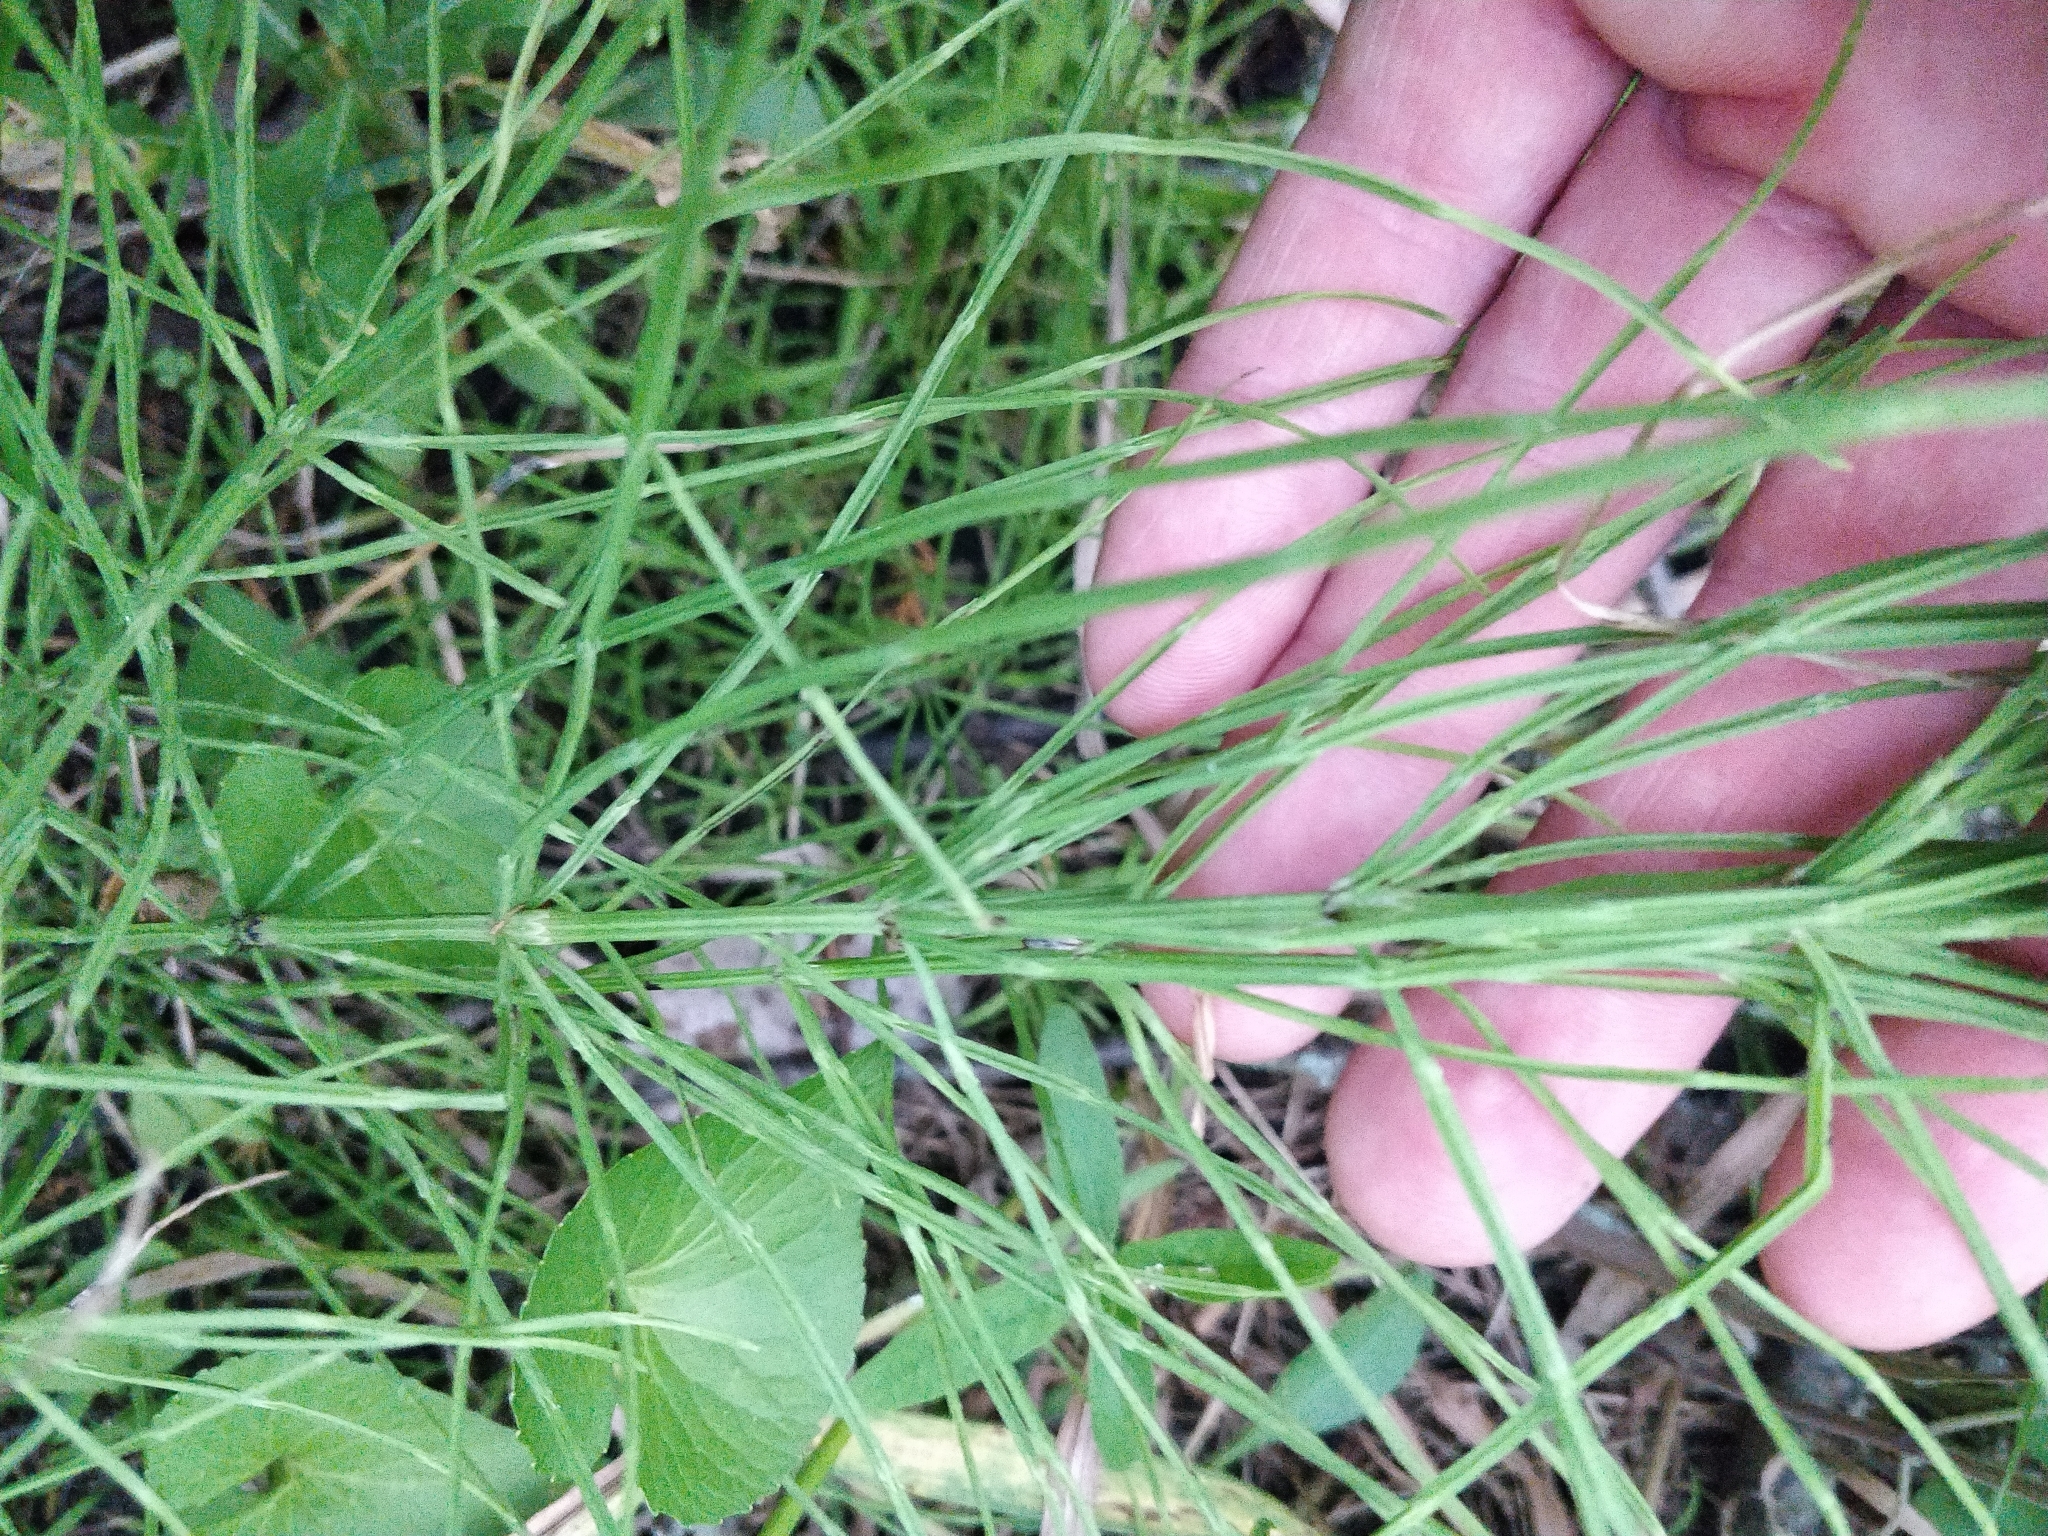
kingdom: Plantae
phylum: Tracheophyta
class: Polypodiopsida
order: Equisetales
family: Equisetaceae
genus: Equisetum
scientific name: Equisetum arvense
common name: Field horsetail
